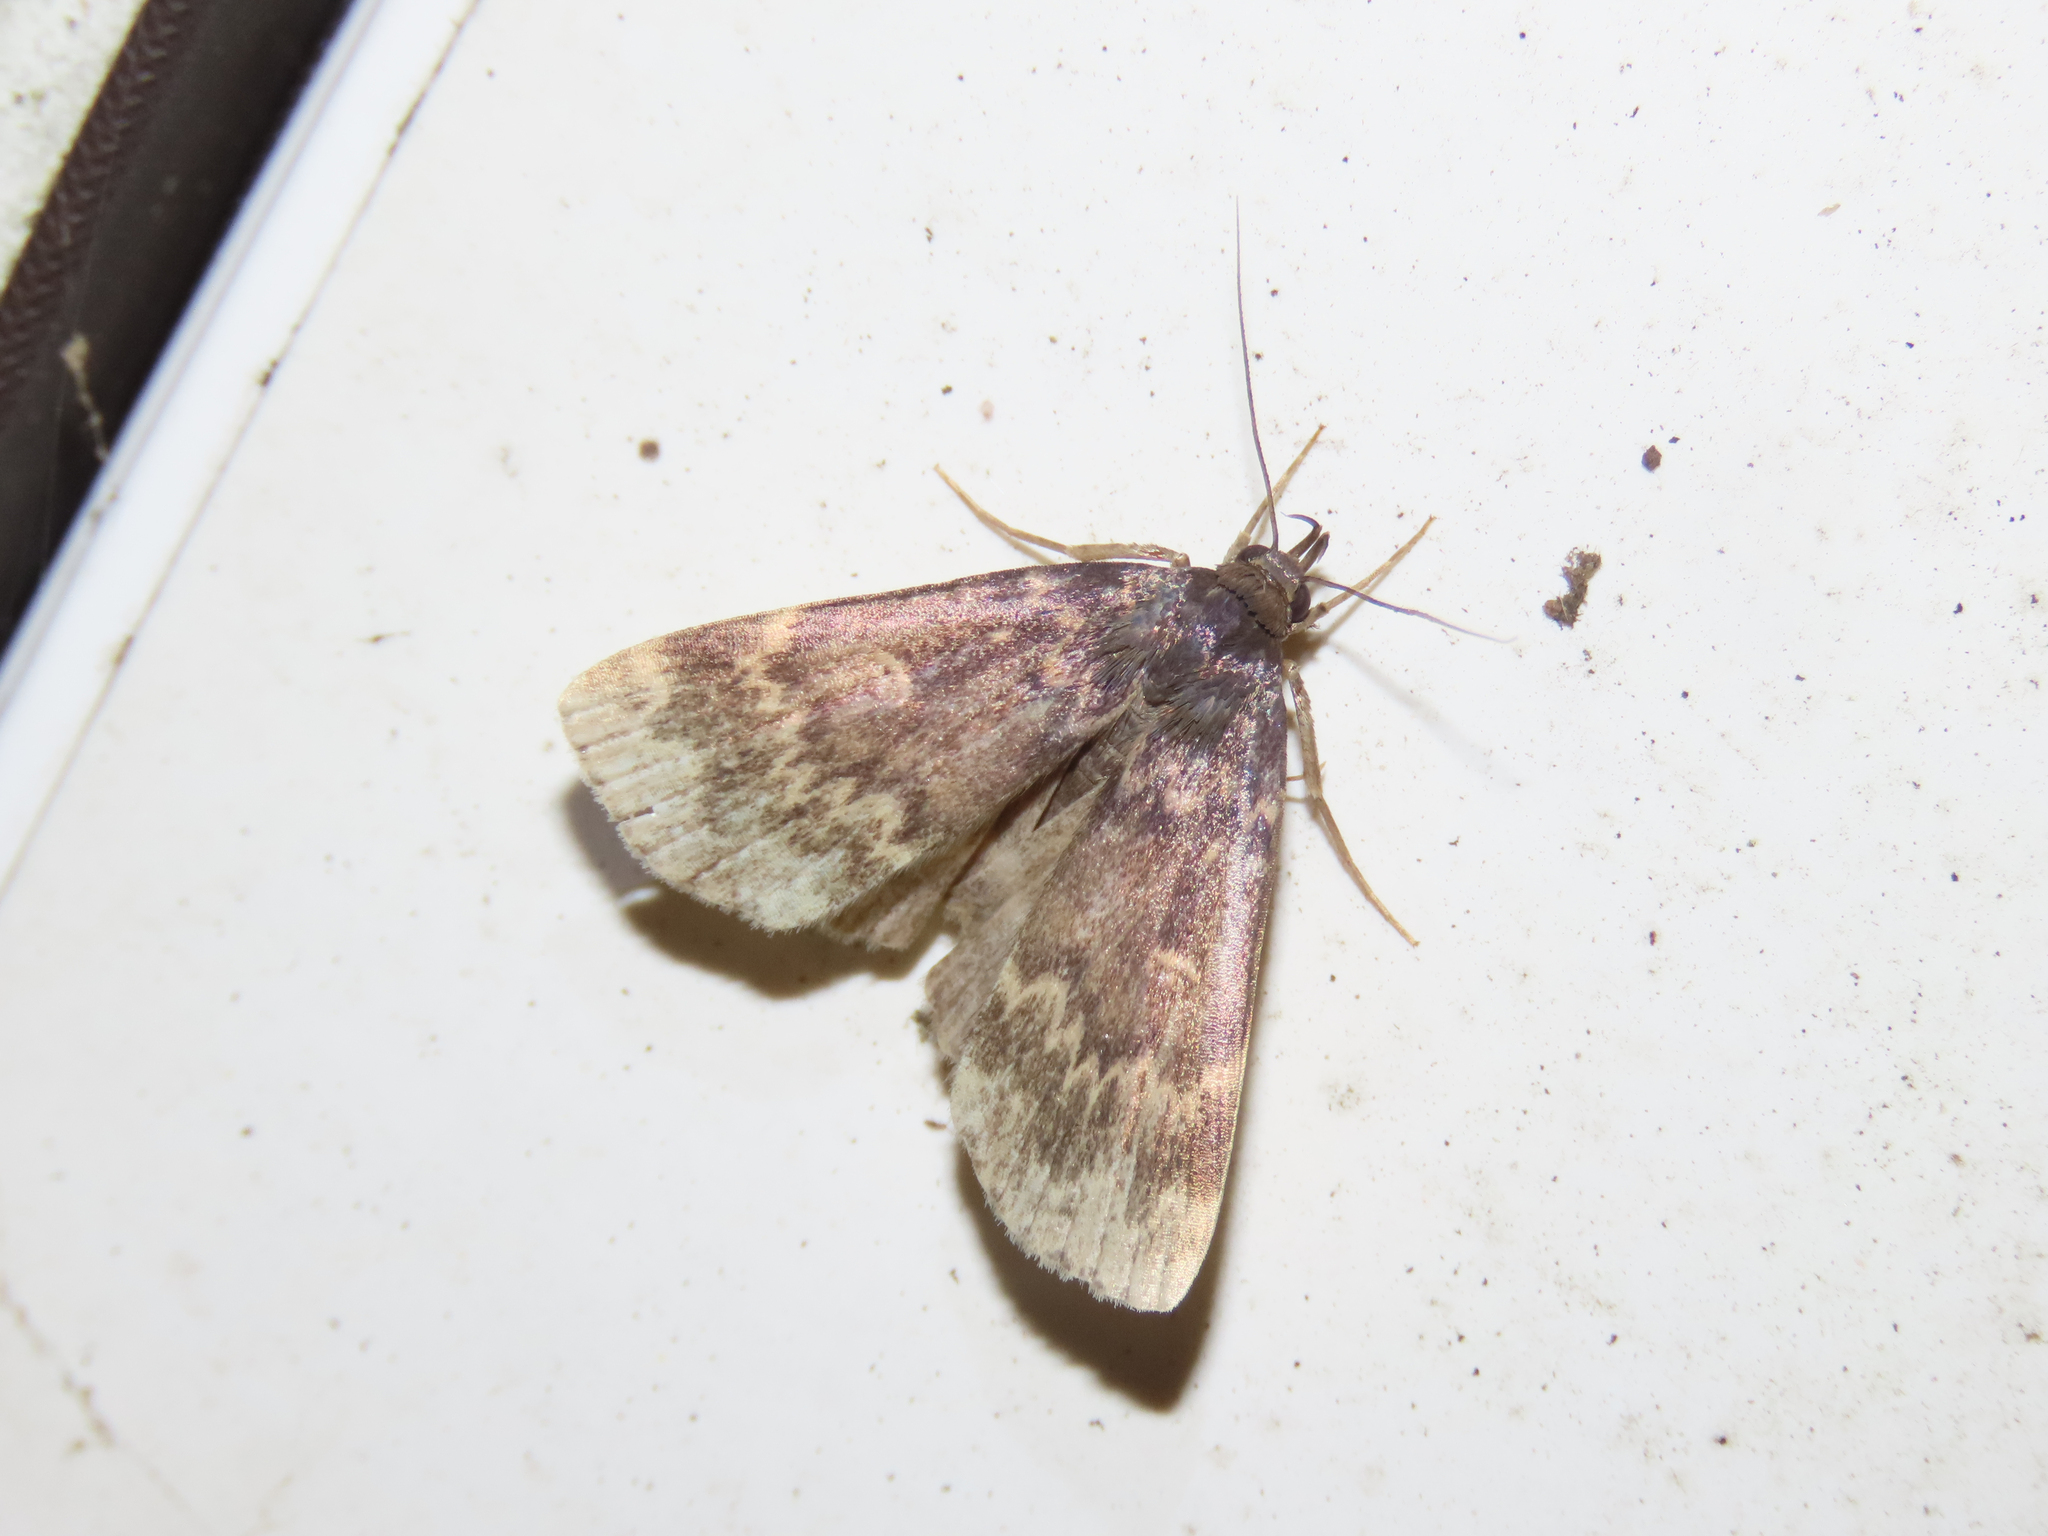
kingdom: Animalia
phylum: Arthropoda
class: Insecta
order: Lepidoptera
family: Erebidae
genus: Idia
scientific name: Idia lubricalis
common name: Twin-striped tabby
